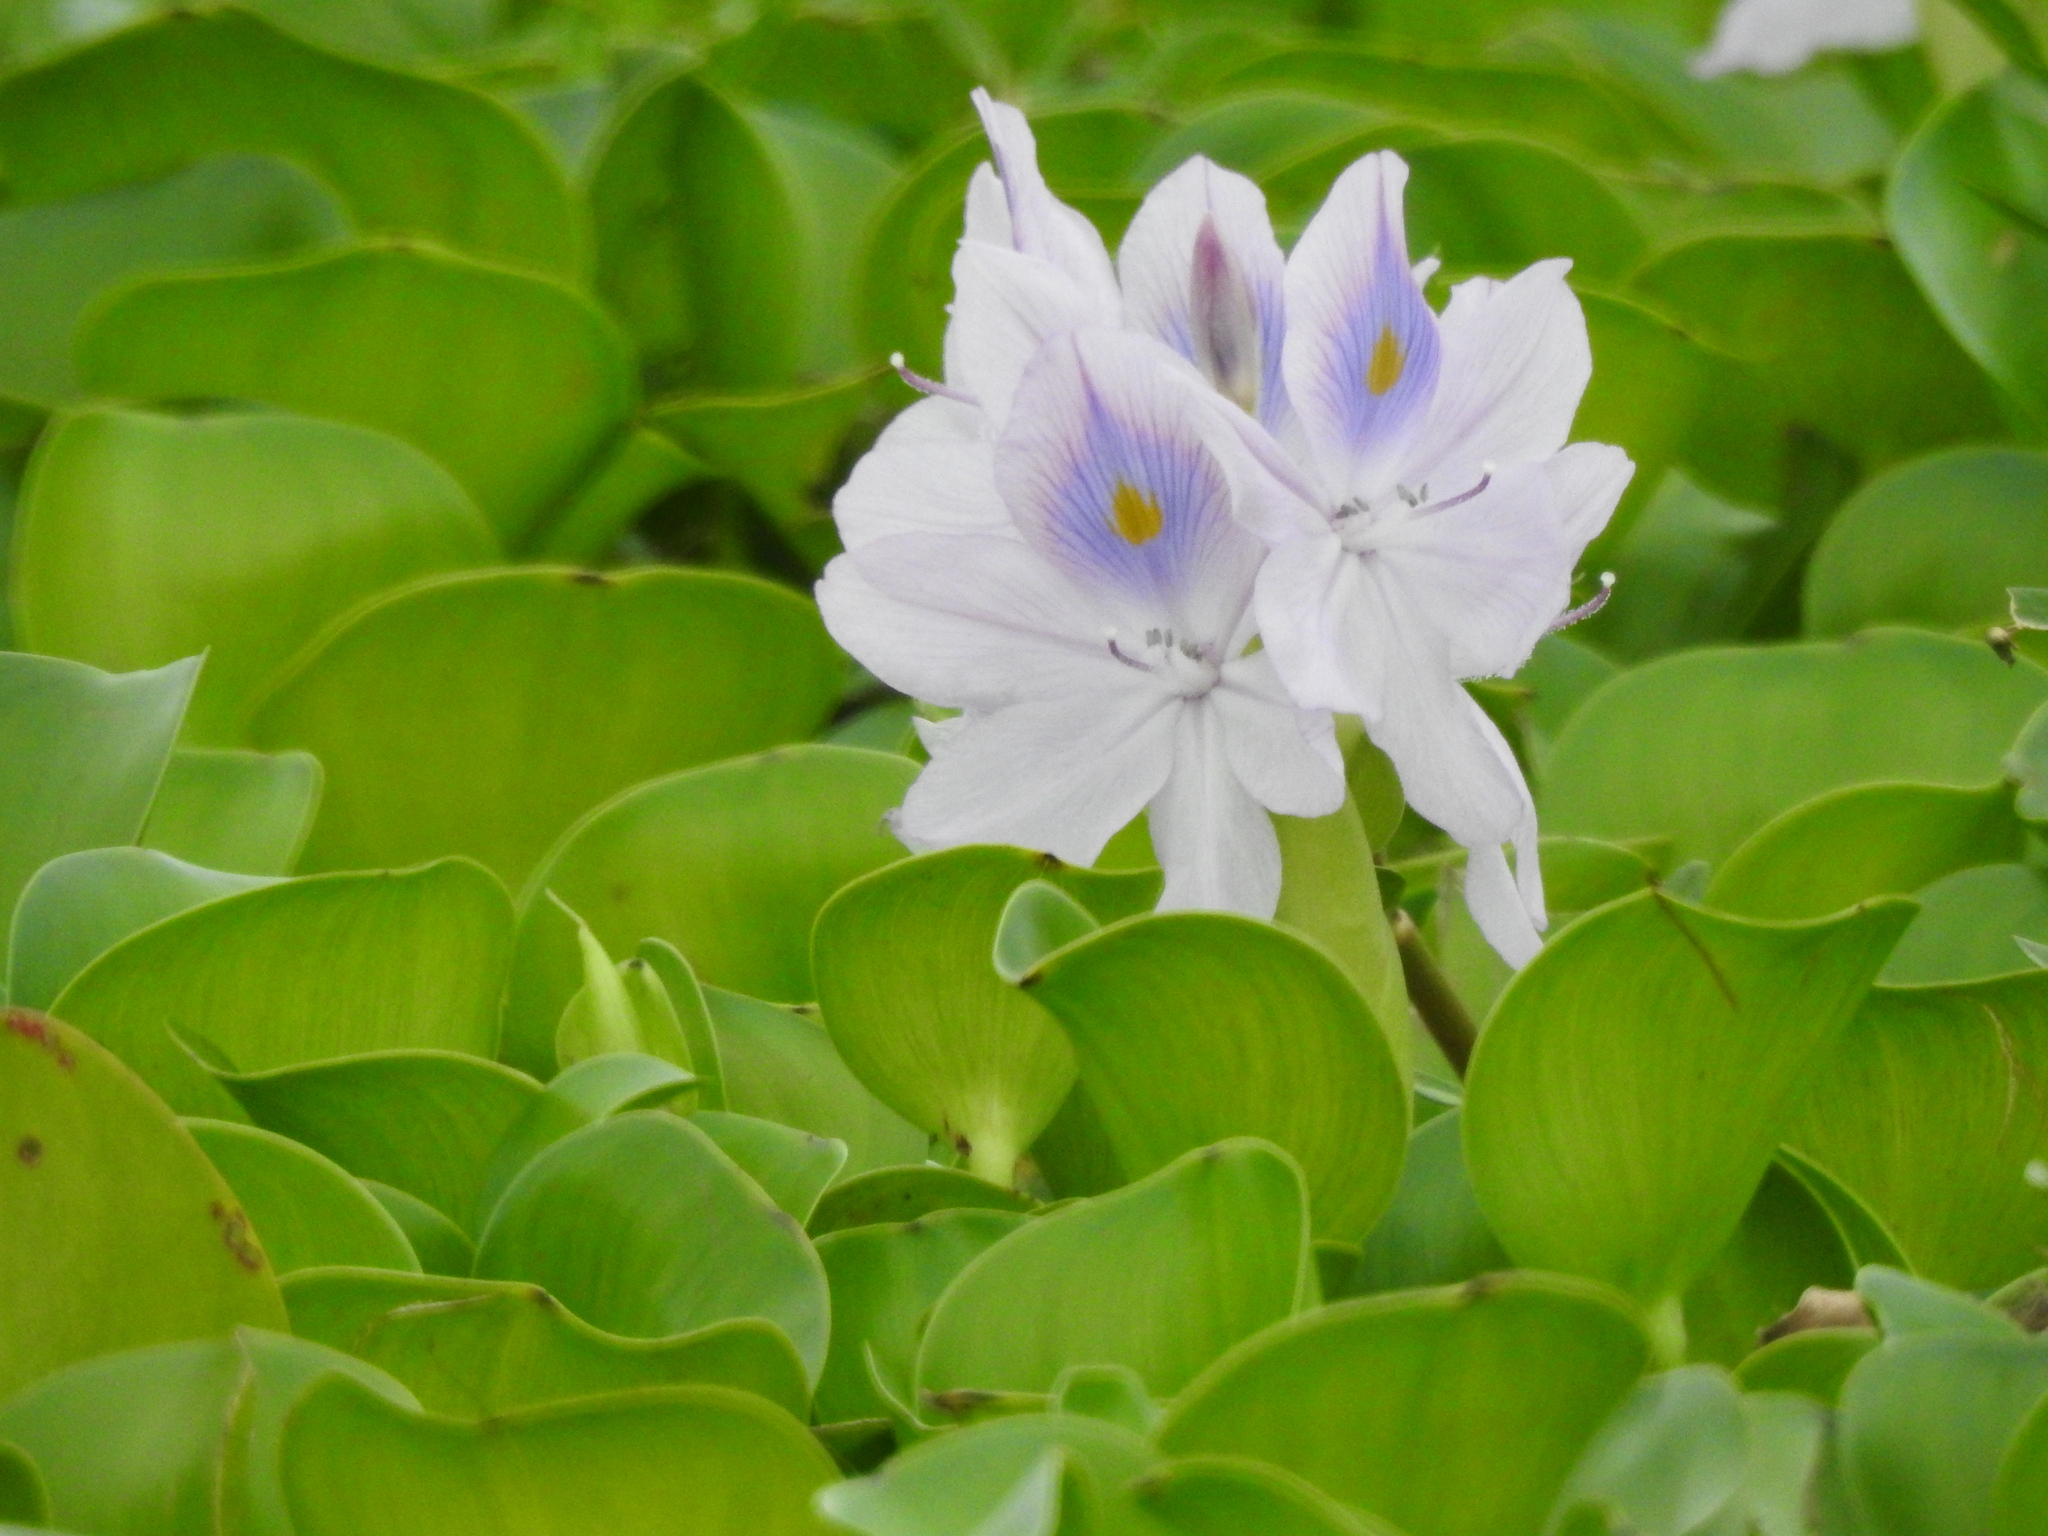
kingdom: Plantae
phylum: Tracheophyta
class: Liliopsida
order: Commelinales
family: Pontederiaceae
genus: Pontederia
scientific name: Pontederia crassipes
